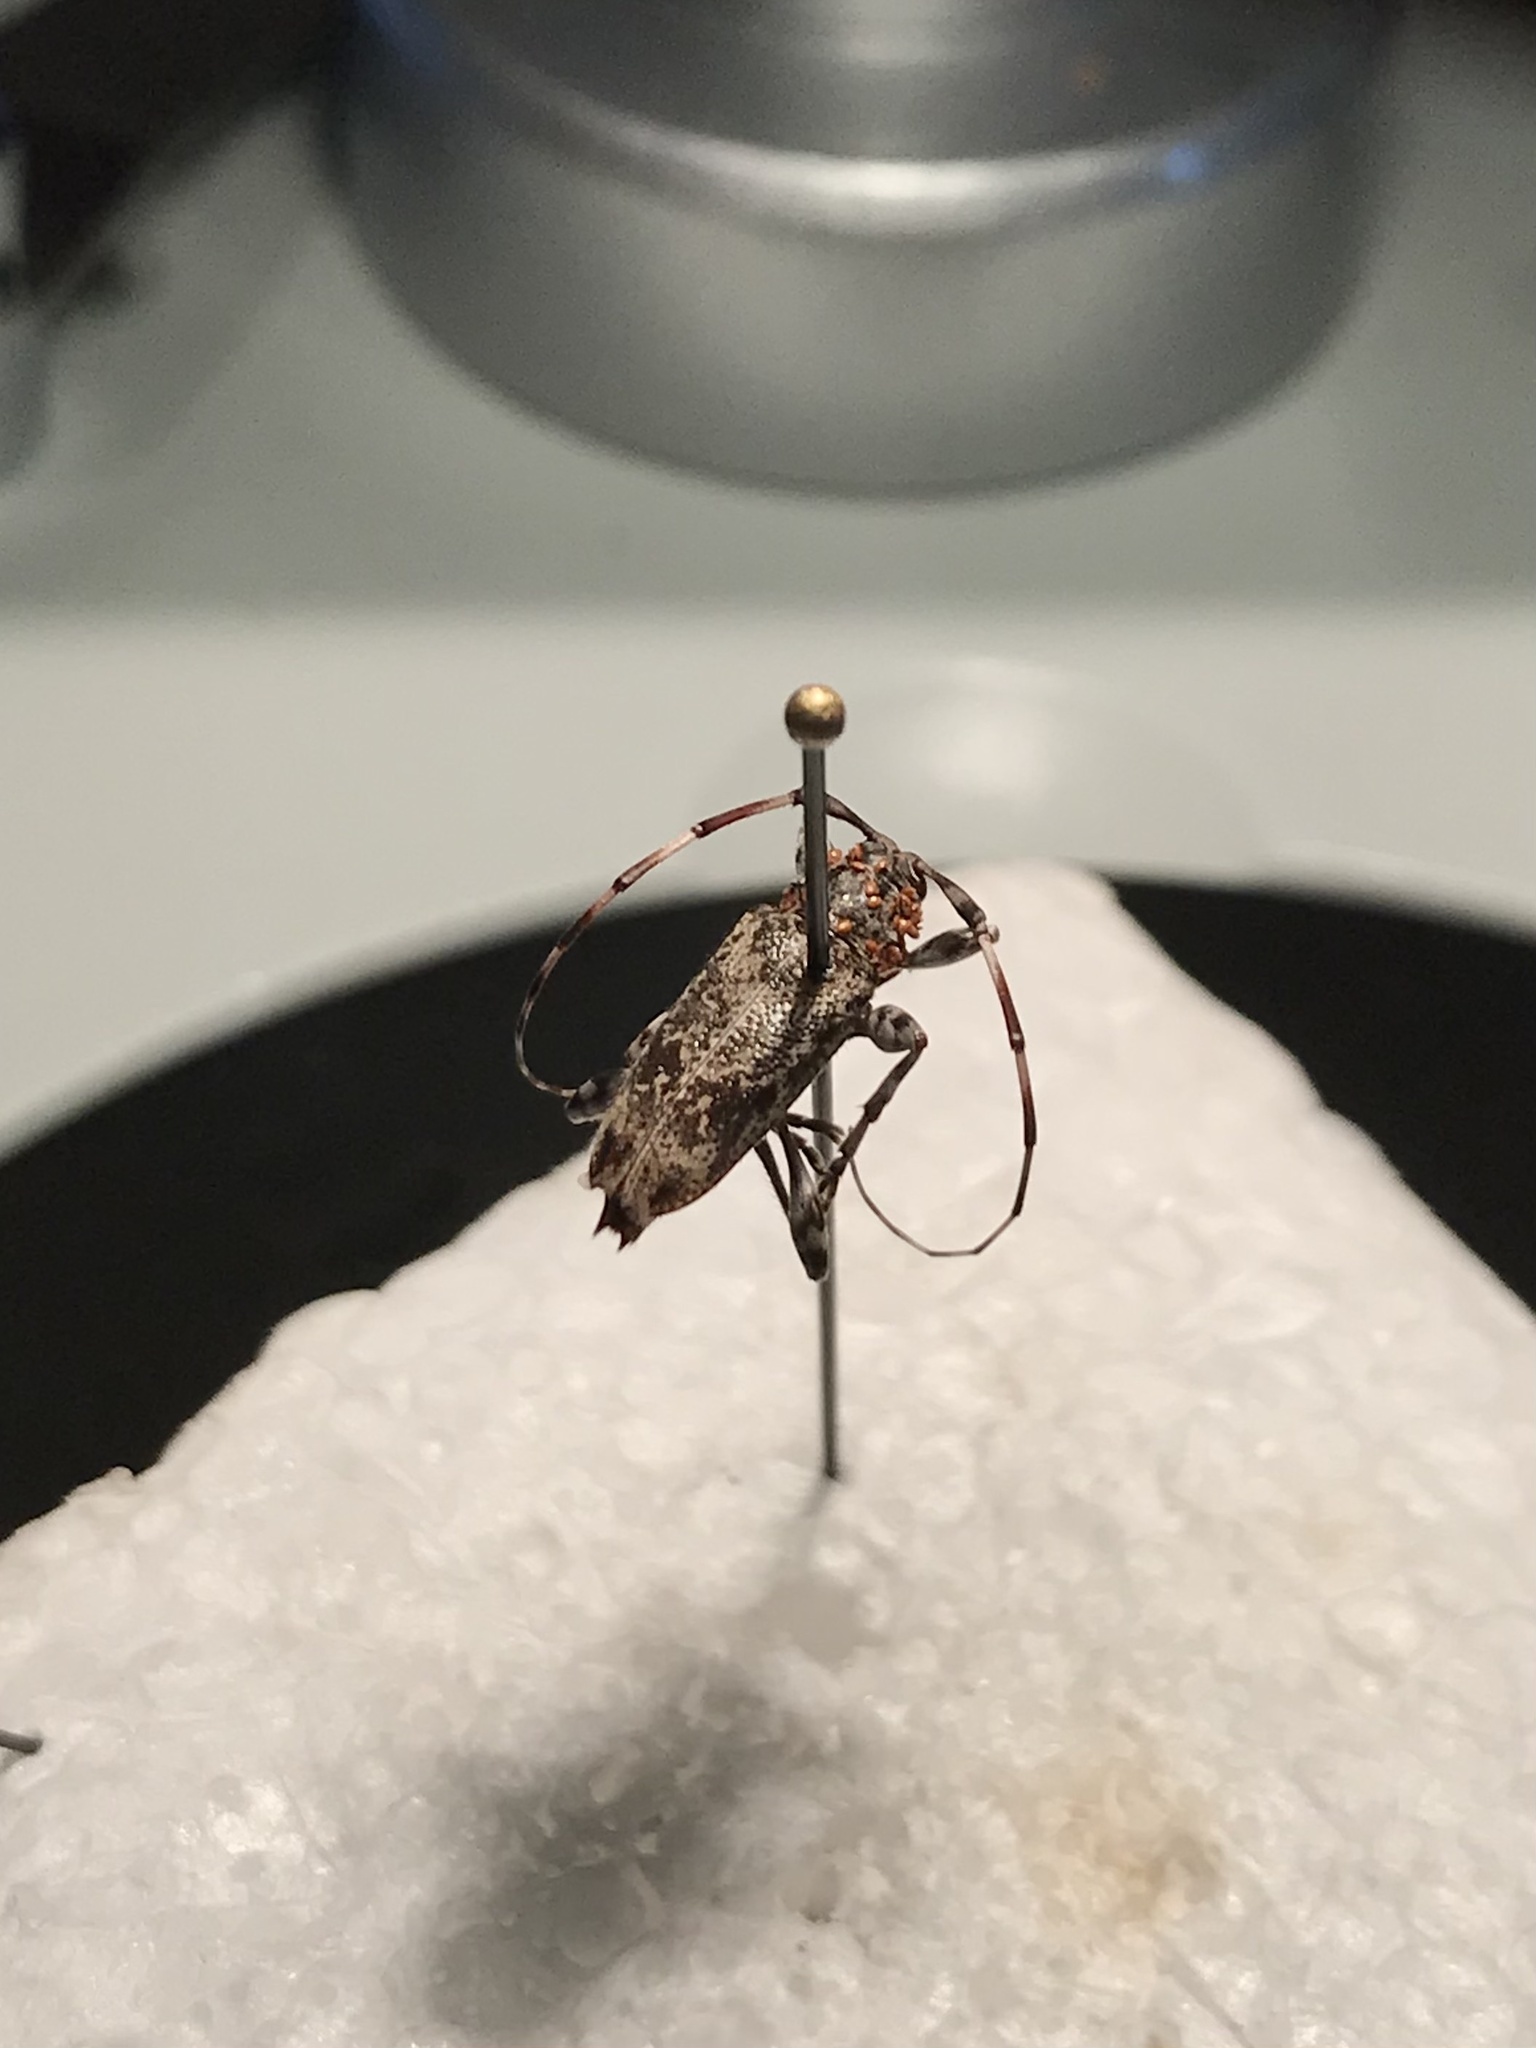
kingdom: Animalia
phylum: Arthropoda
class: Insecta
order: Coleoptera
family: Cerambycidae
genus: Graphisurus
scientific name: Graphisurus fasciatus
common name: Banded graphisurus
